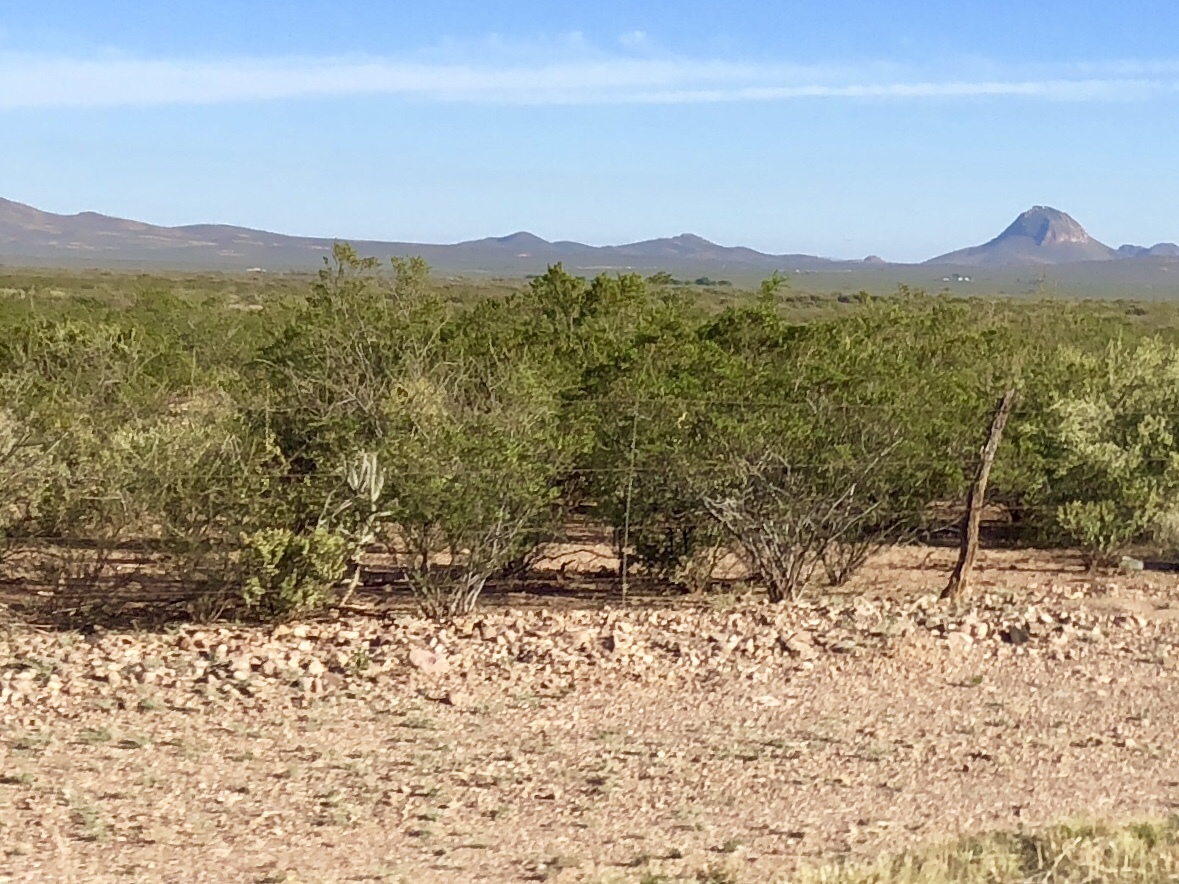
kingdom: Plantae
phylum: Tracheophyta
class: Magnoliopsida
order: Zygophyllales
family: Zygophyllaceae
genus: Larrea
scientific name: Larrea tridentata
